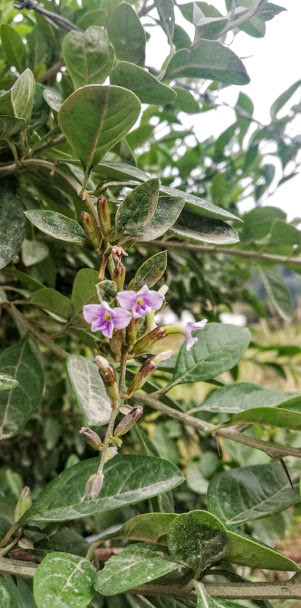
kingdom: Plantae
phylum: Tracheophyta
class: Magnoliopsida
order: Lamiales
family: Verbenaceae
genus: Duranta
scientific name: Duranta mutisii
